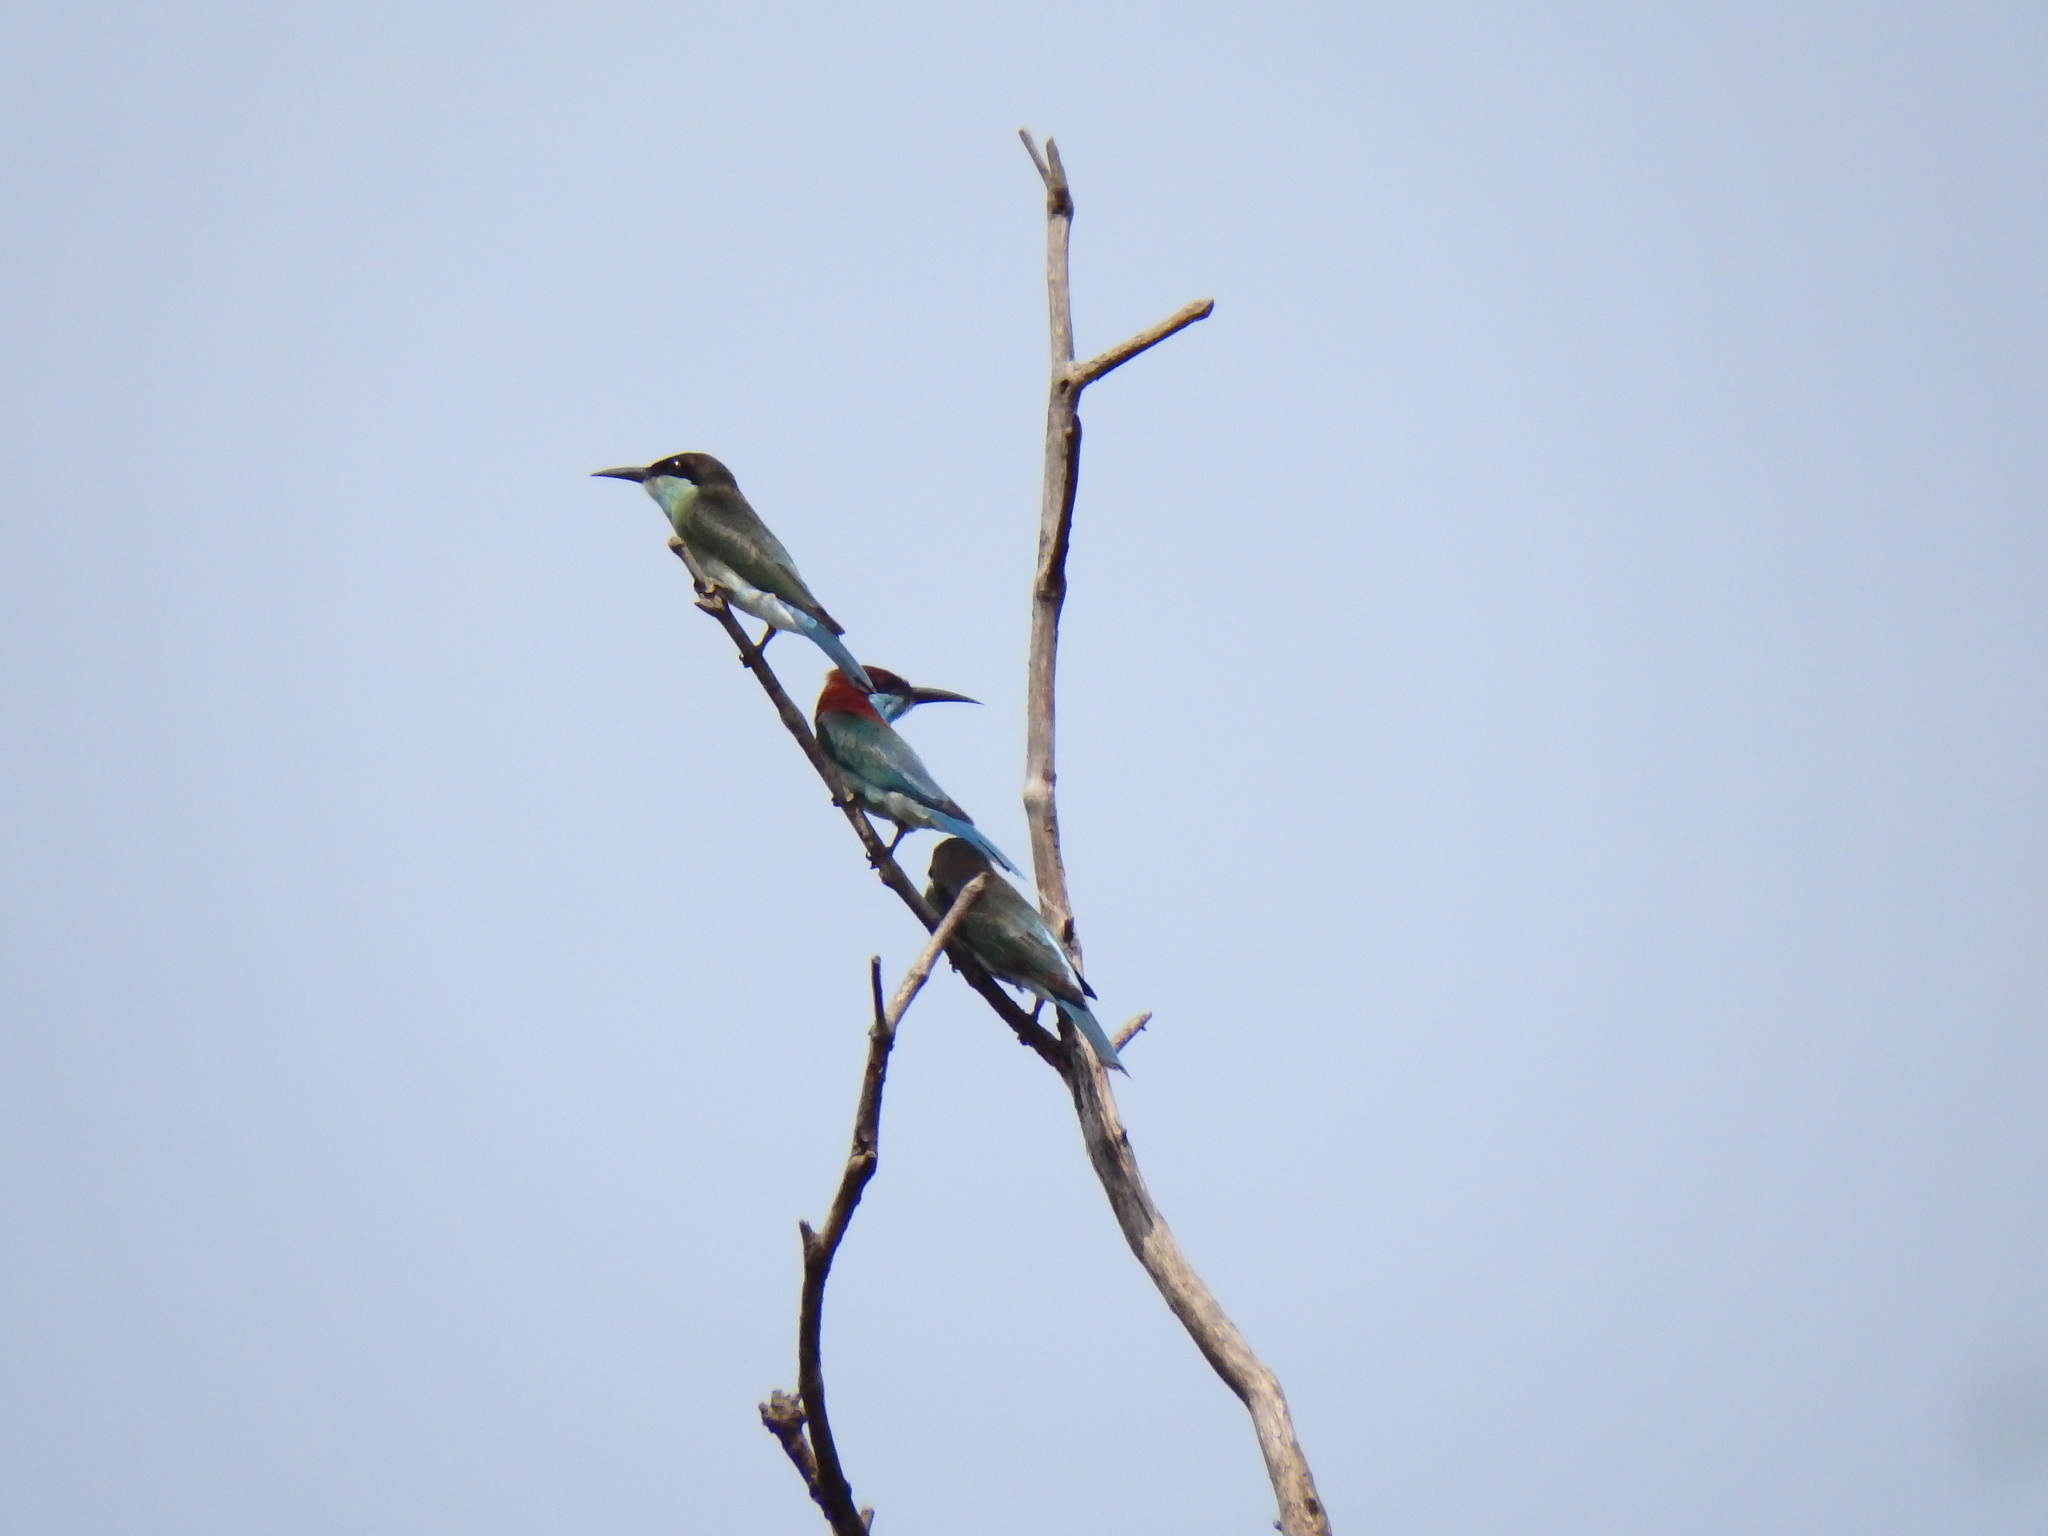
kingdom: Animalia
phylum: Chordata
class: Aves
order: Coraciiformes
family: Meropidae
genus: Merops
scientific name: Merops viridis
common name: Blue-throated bee-eater
